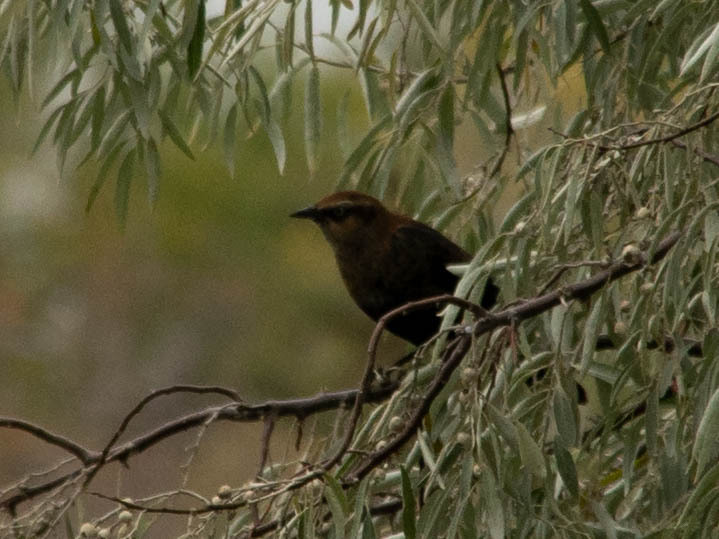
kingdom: Animalia
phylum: Chordata
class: Aves
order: Passeriformes
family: Icteridae
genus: Euphagus
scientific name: Euphagus carolinus
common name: Rusty blackbird
